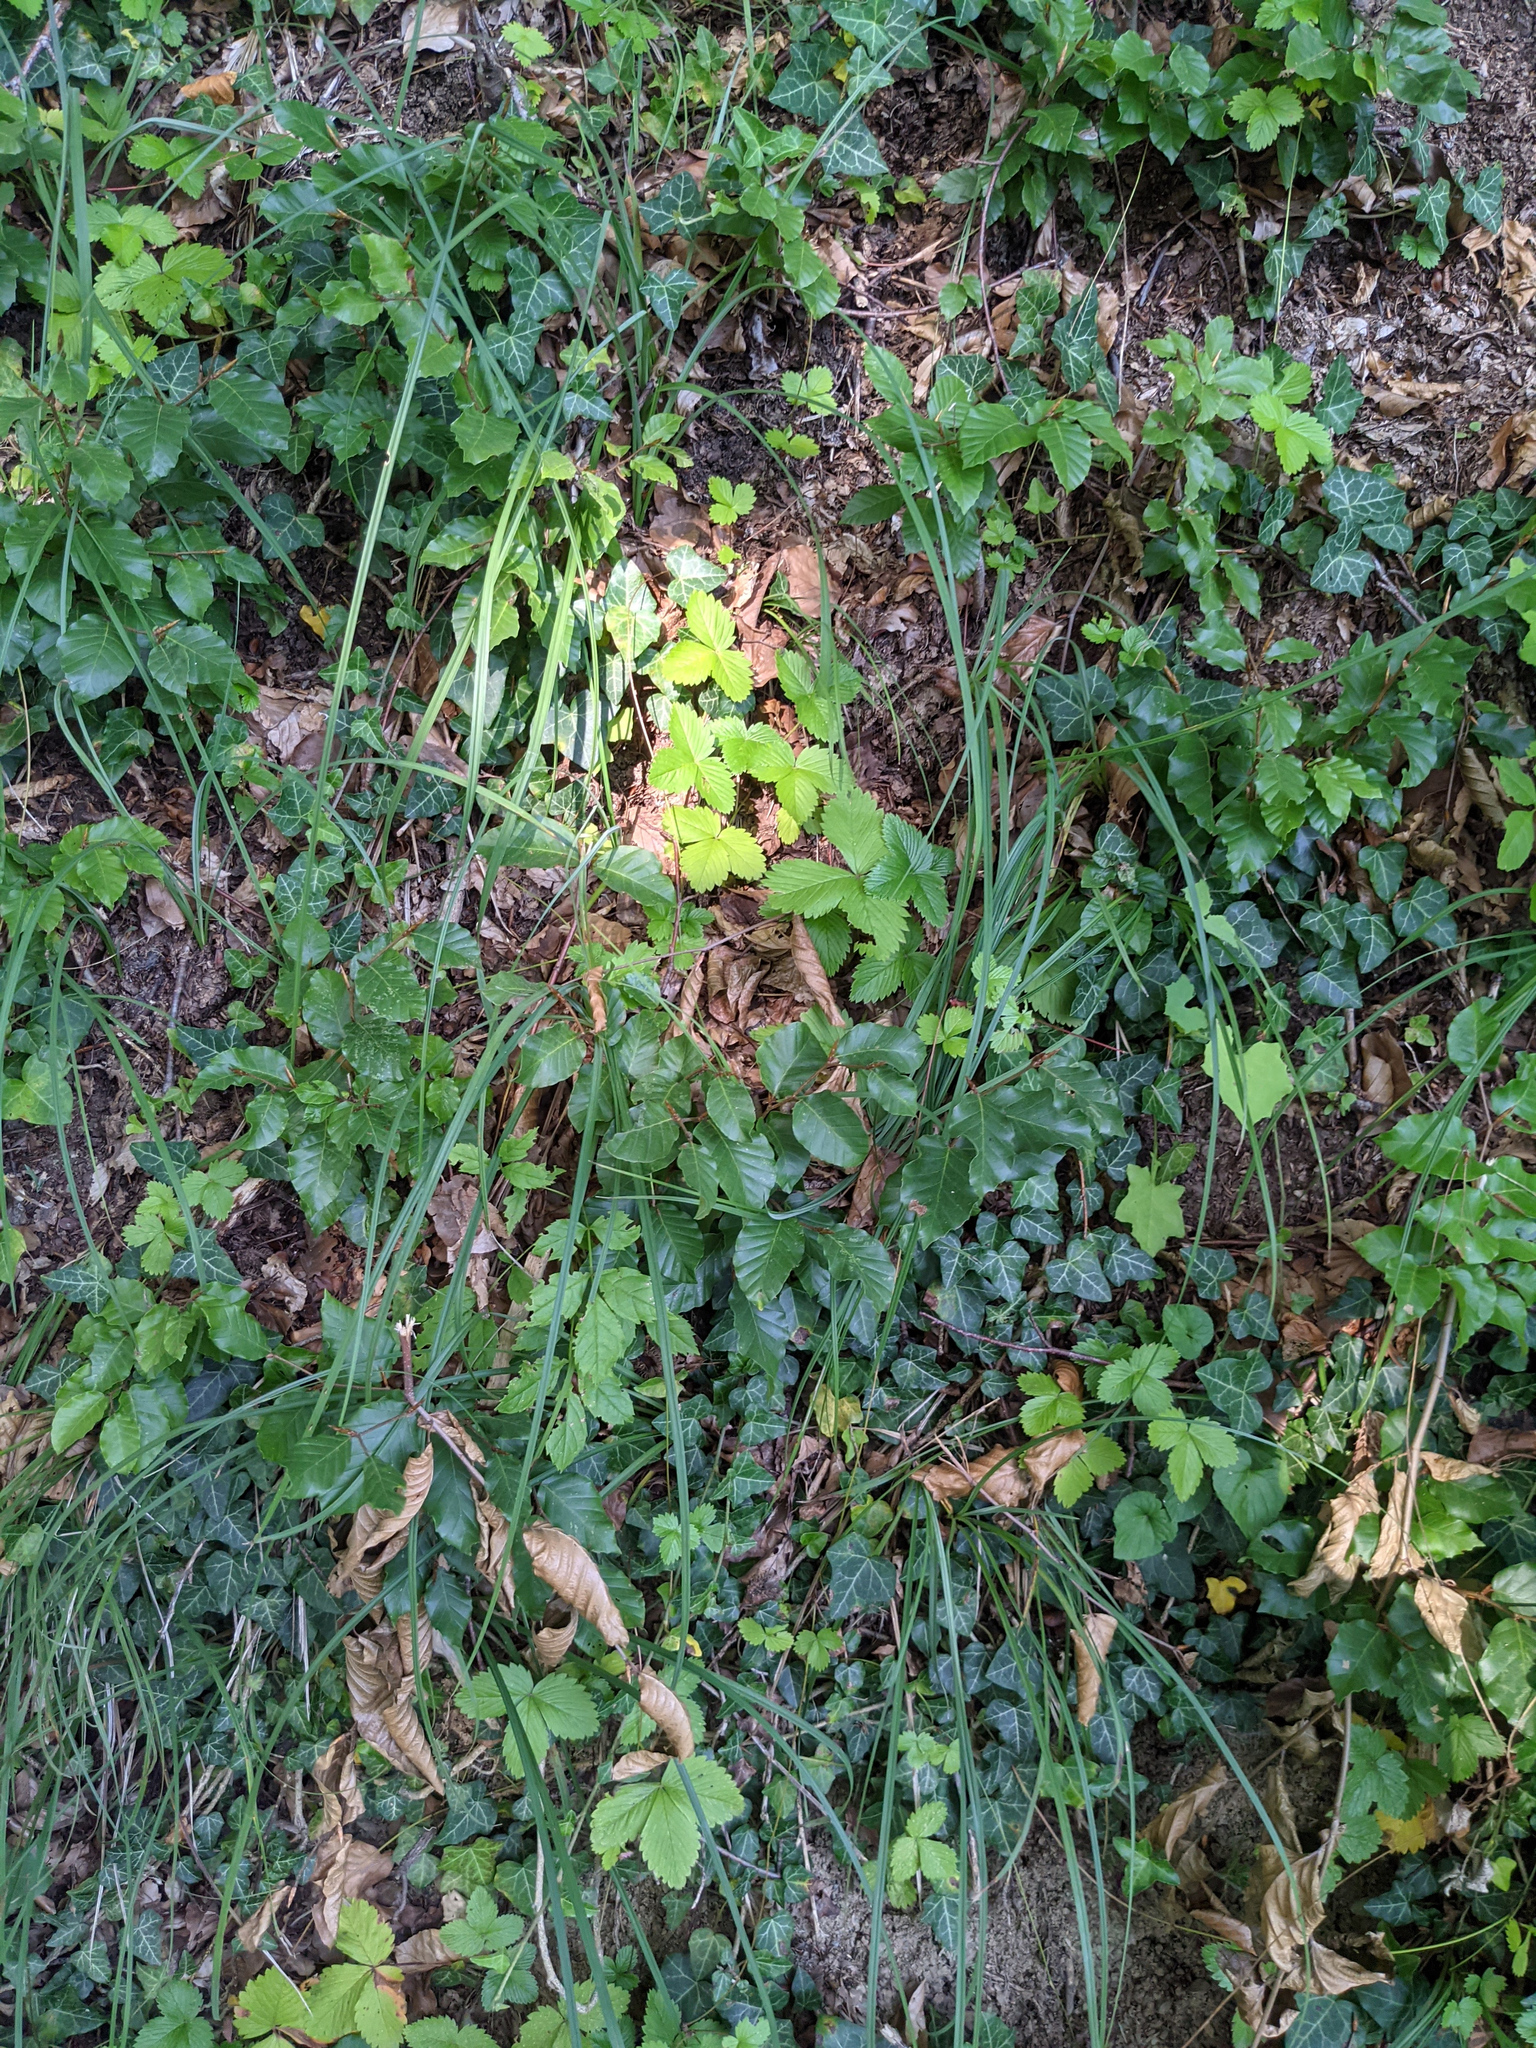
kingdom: Plantae
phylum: Tracheophyta
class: Magnoliopsida
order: Fagales
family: Fagaceae
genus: Fagus
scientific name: Fagus sylvatica
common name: Beech
